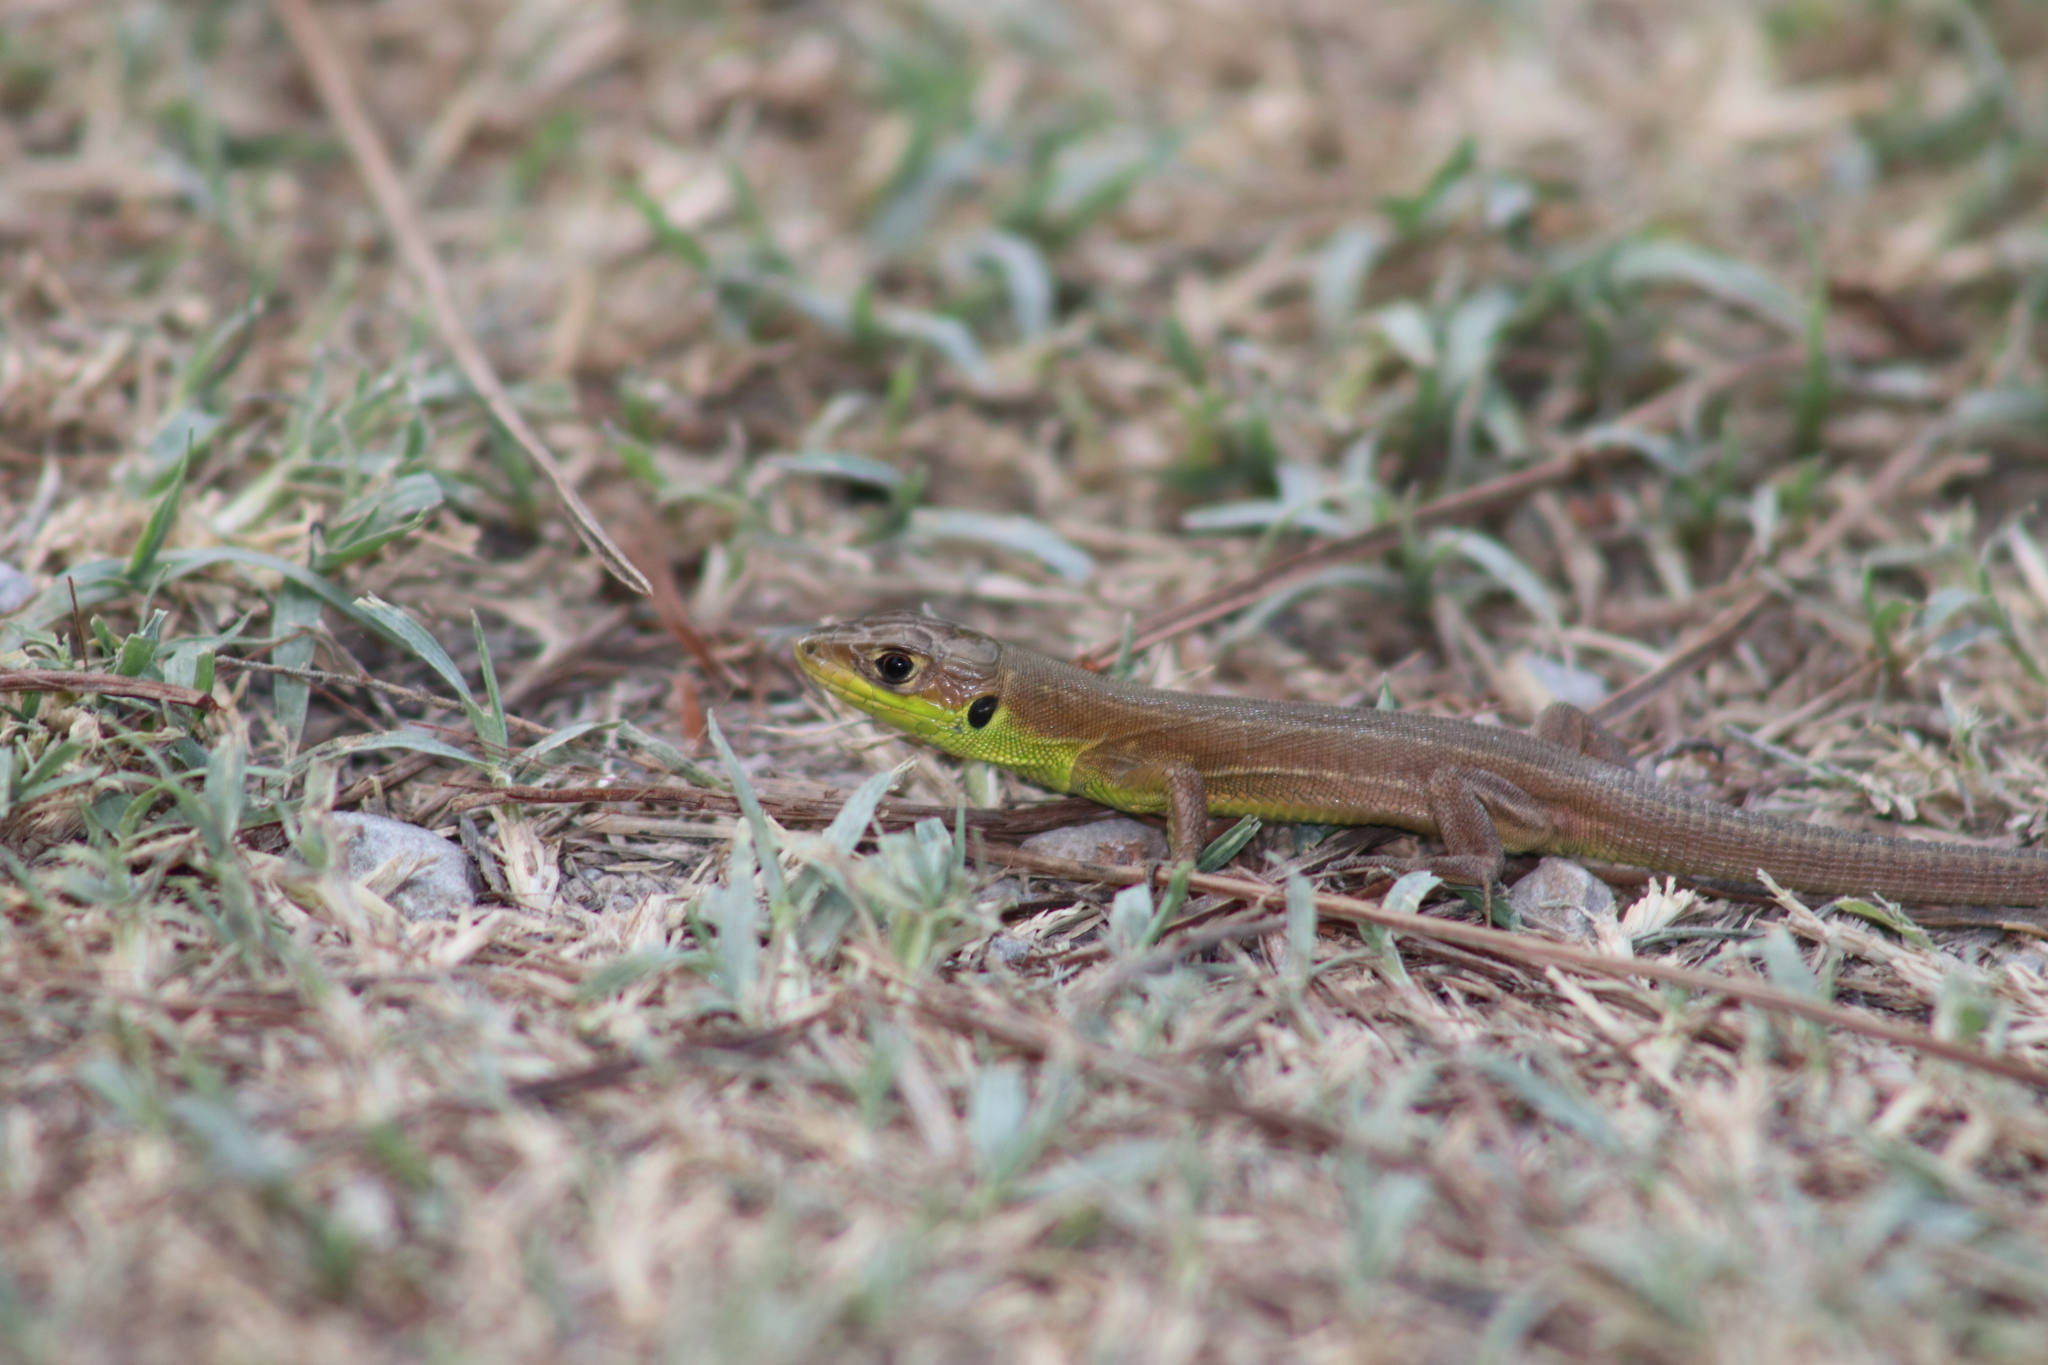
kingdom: Animalia
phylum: Chordata
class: Squamata
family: Lacertidae
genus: Lacerta
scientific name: Lacerta bilineata
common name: Western green lizard
